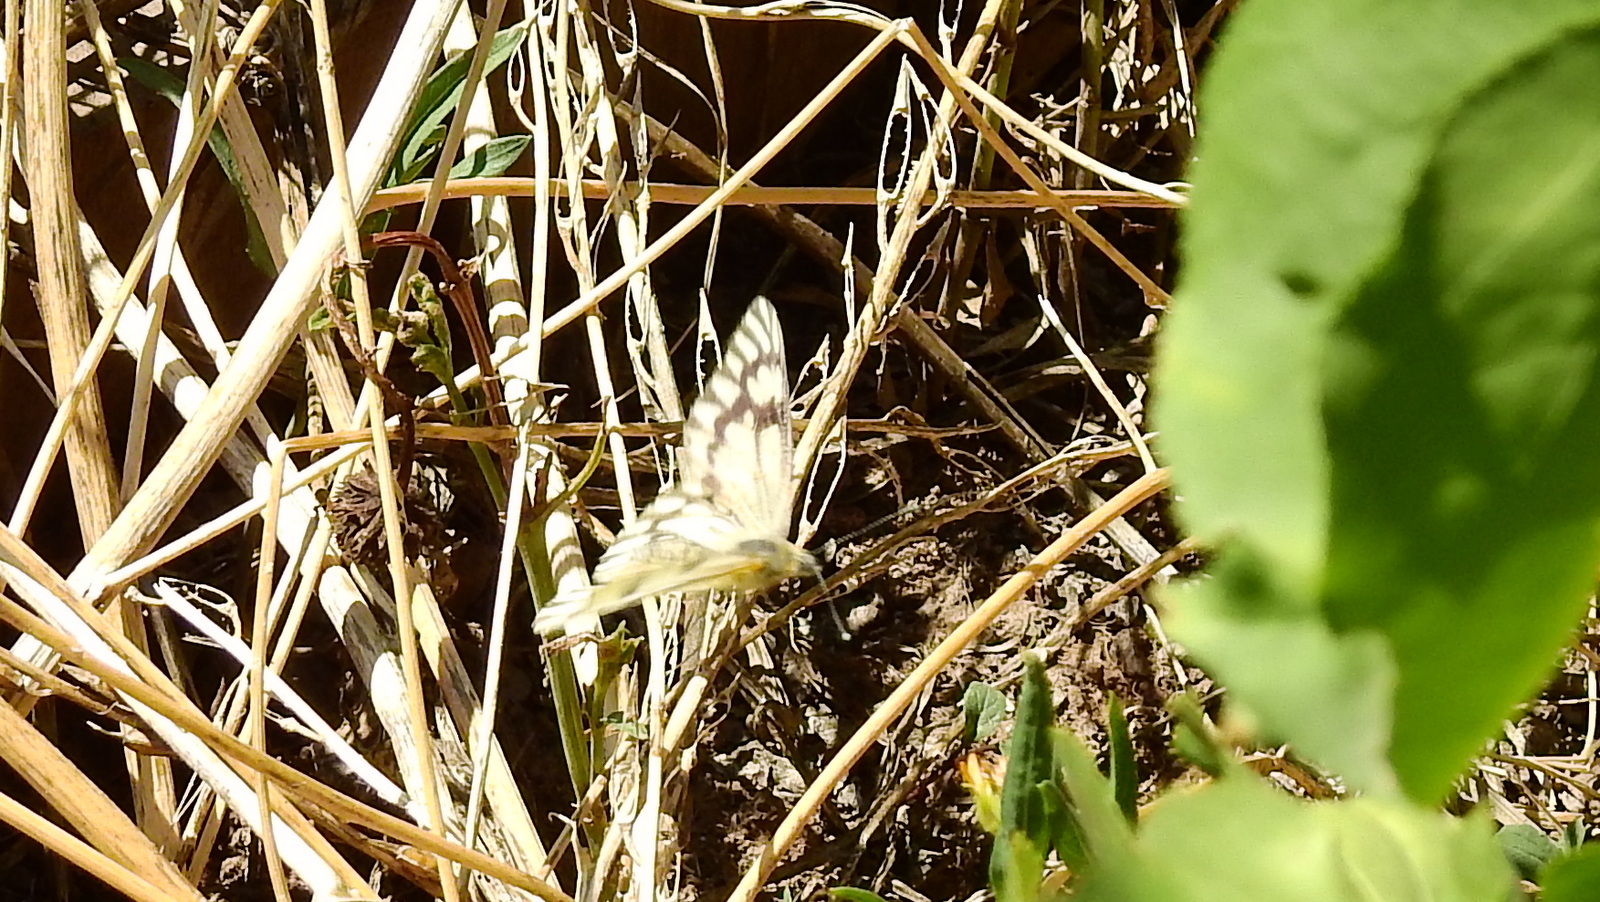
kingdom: Animalia
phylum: Arthropoda
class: Insecta
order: Lepidoptera
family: Pieridae
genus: Tatochila
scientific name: Tatochila mercedis
